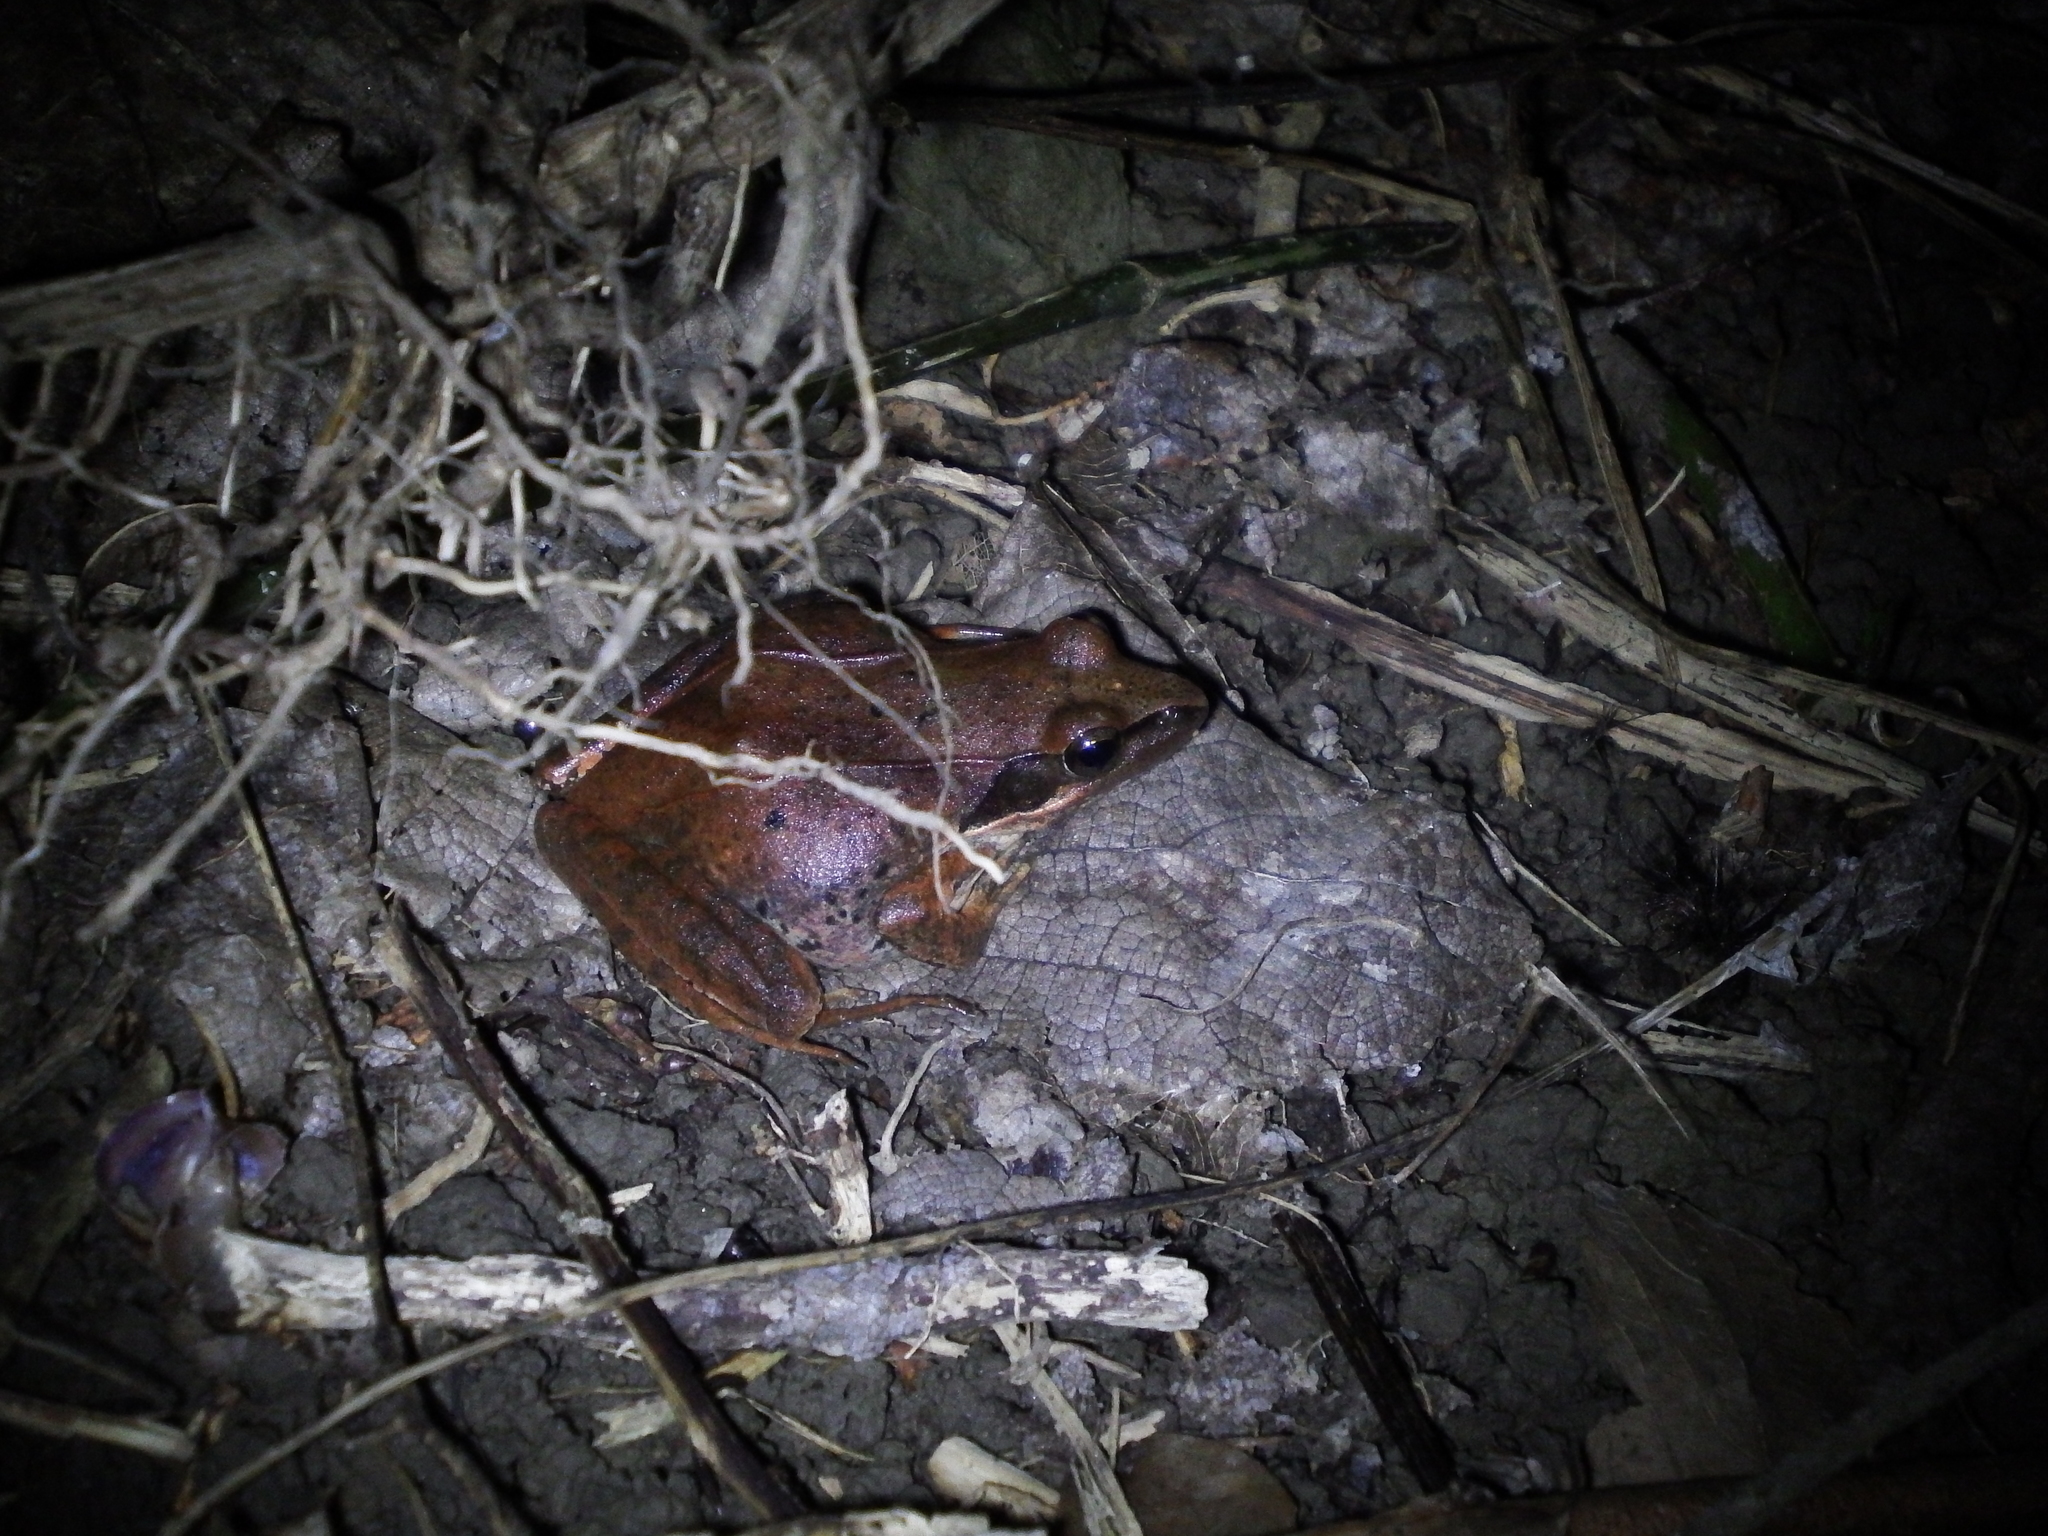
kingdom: Animalia
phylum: Chordata
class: Amphibia
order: Anura
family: Ranidae
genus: Rana
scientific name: Rana longicrus
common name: Long-legged brown frog
